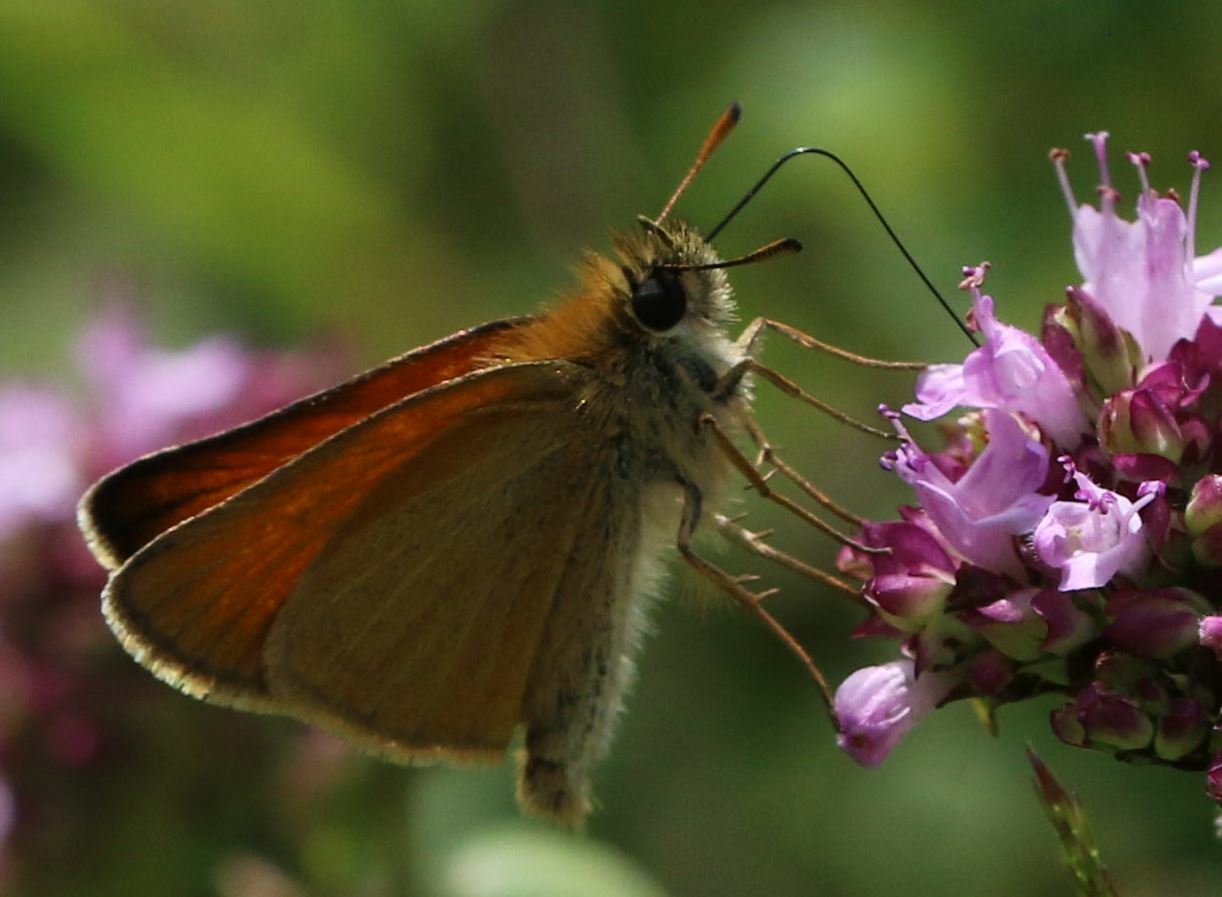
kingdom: Animalia
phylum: Arthropoda
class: Insecta
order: Lepidoptera
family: Hesperiidae
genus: Thymelicus
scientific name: Thymelicus lineola
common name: Essex skipper
